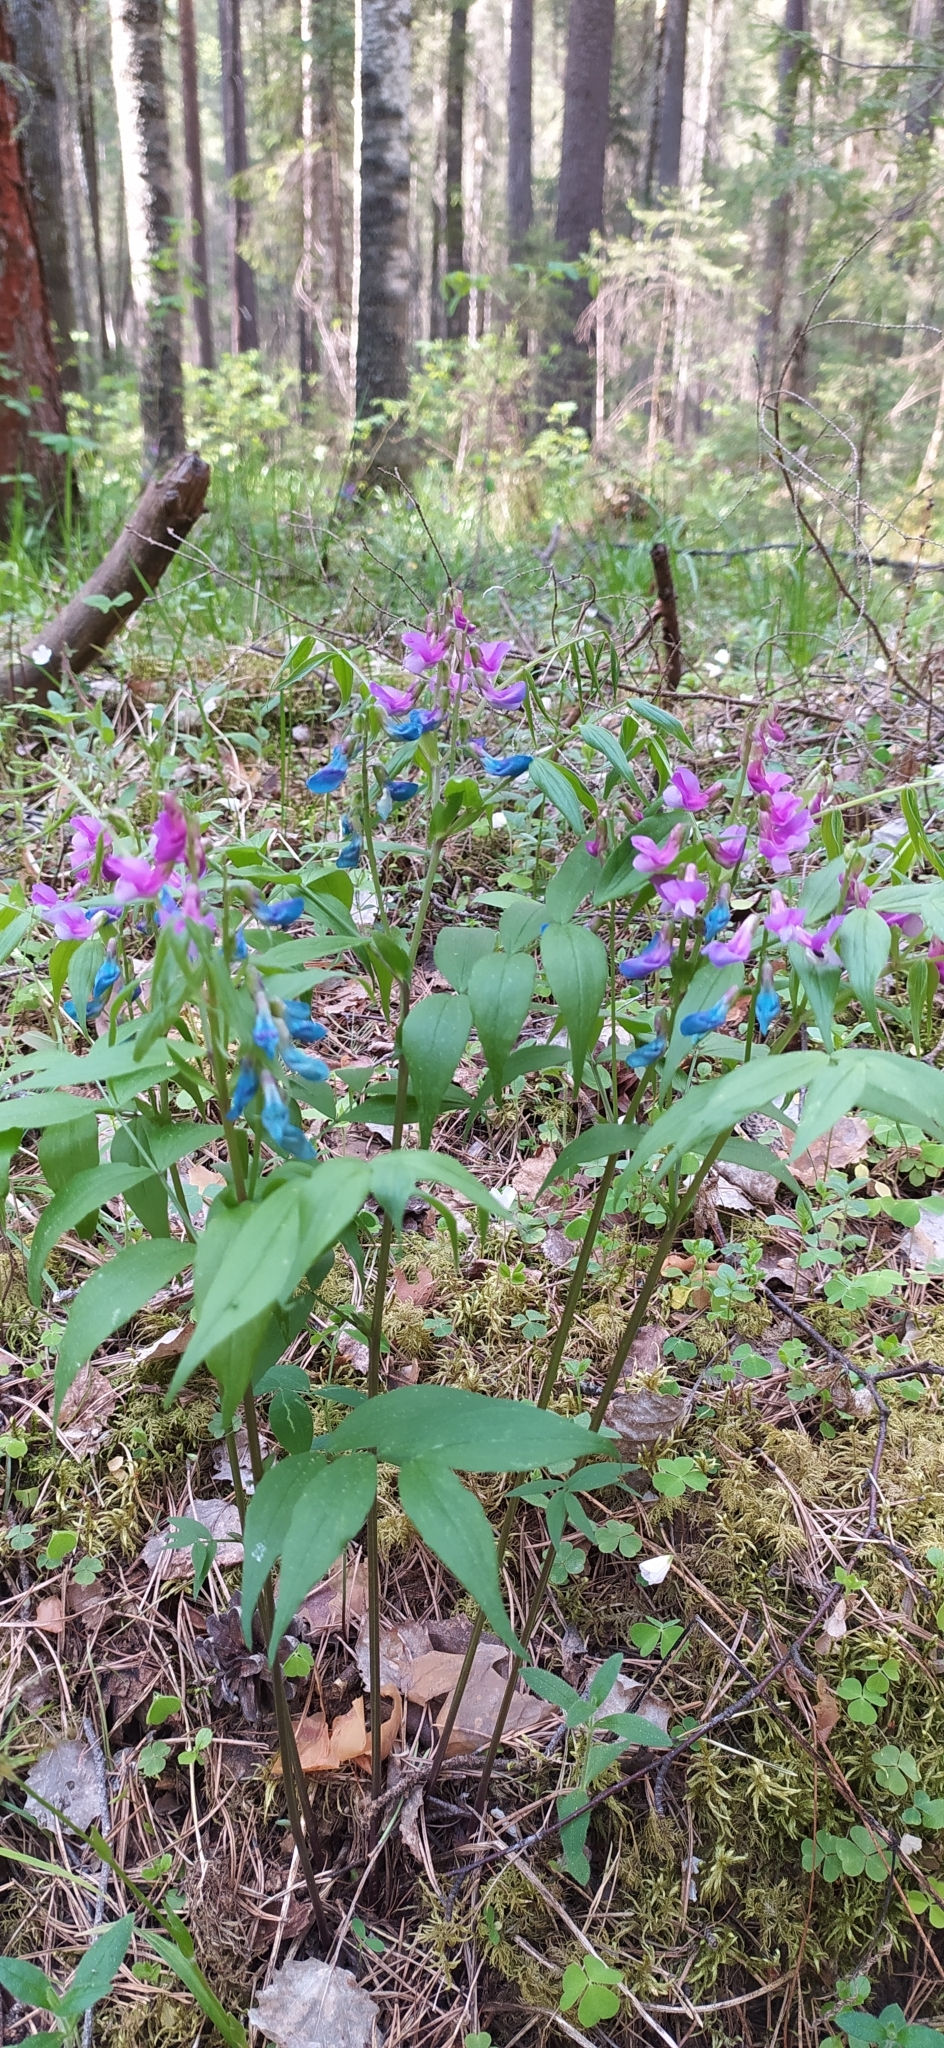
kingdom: Plantae
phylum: Tracheophyta
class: Magnoliopsida
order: Fabales
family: Fabaceae
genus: Lathyrus
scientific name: Lathyrus vernus
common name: Spring pea
